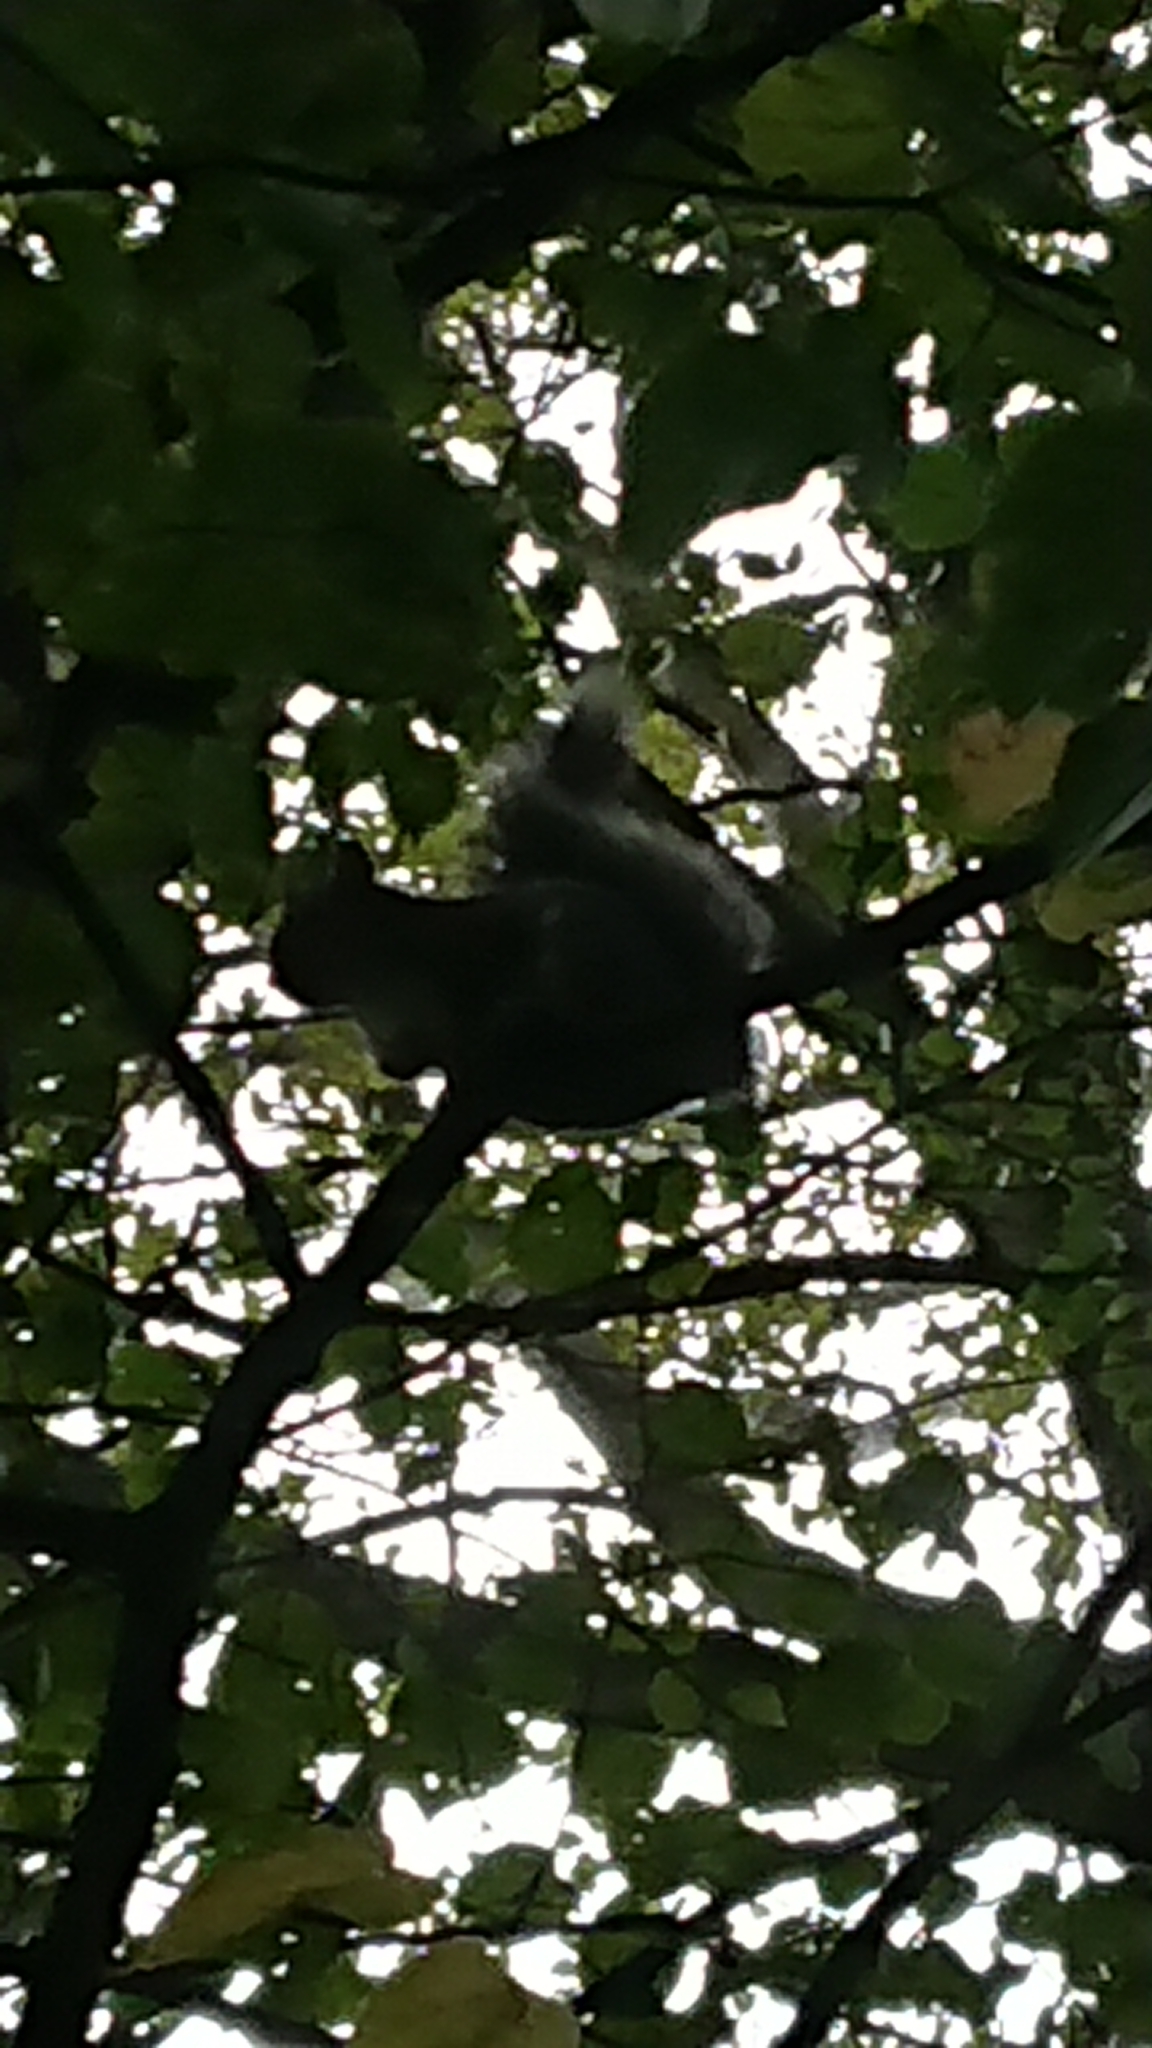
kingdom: Animalia
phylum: Chordata
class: Mammalia
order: Rodentia
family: Sciuridae
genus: Sciurus
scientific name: Sciurus carolinensis
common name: Eastern gray squirrel
